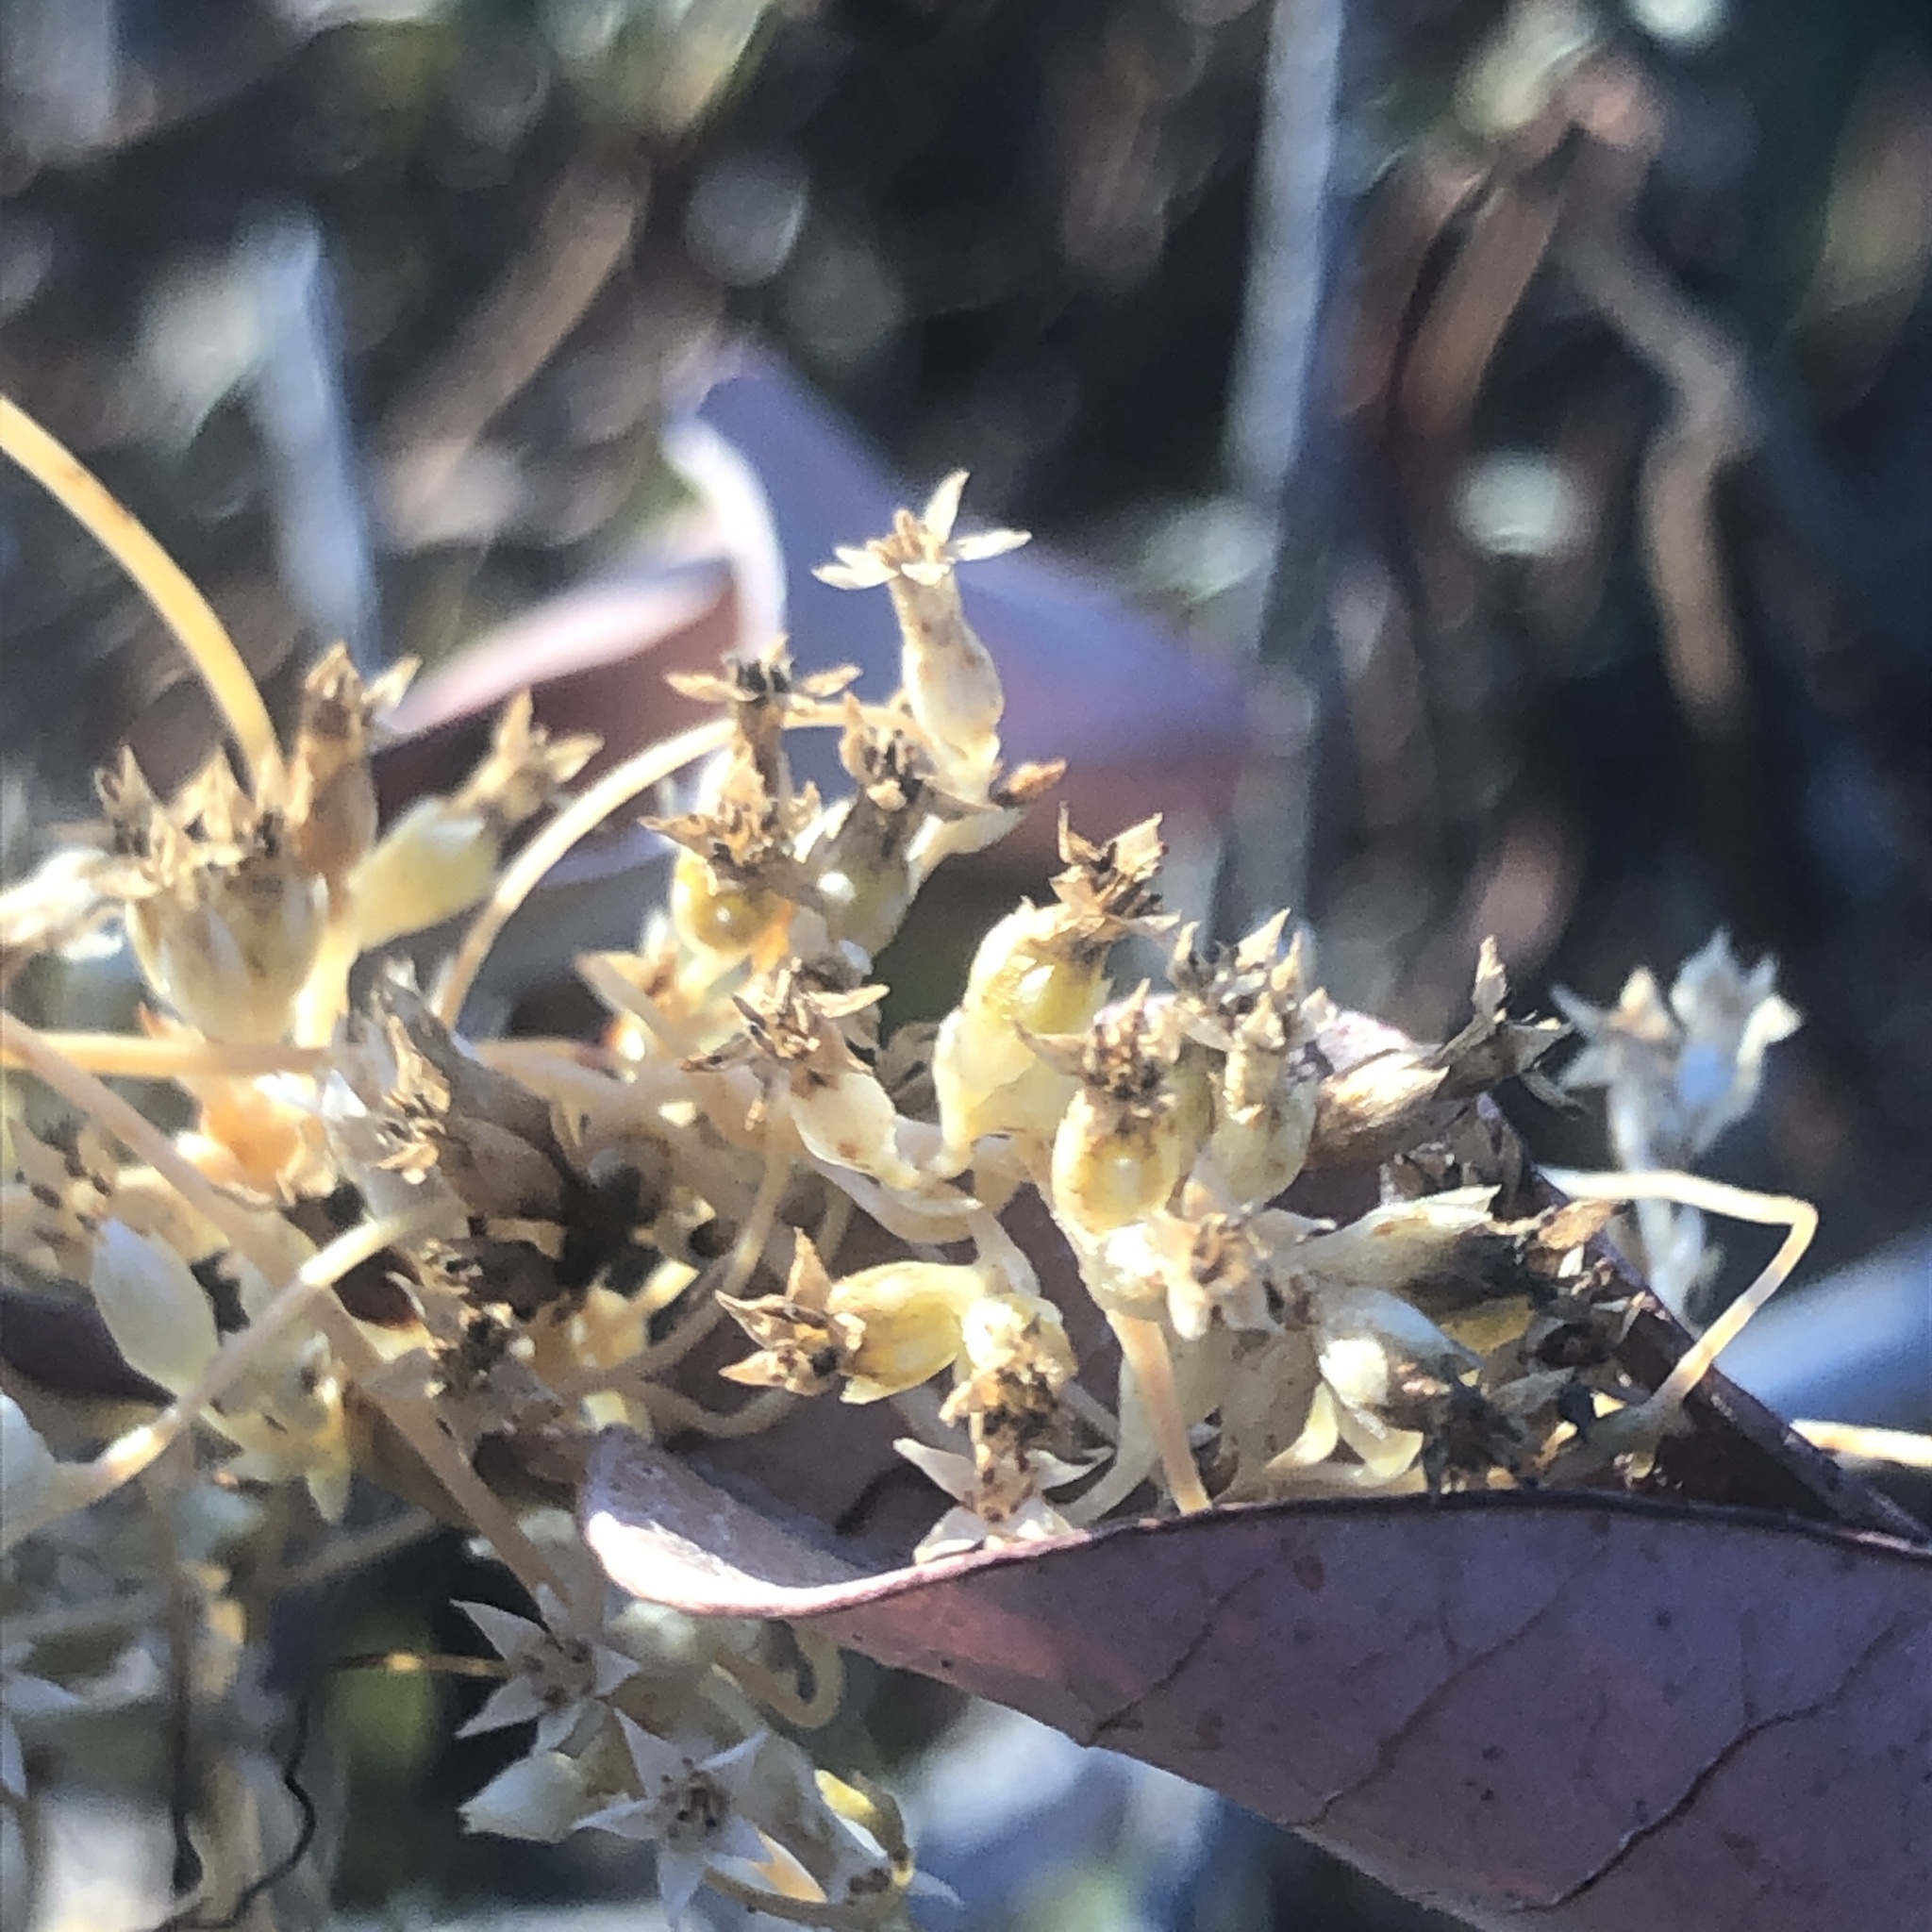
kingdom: Plantae
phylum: Tracheophyta
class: Magnoliopsida
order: Solanales
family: Convolvulaceae
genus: Cuscuta
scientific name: Cuscuta subinclusa
